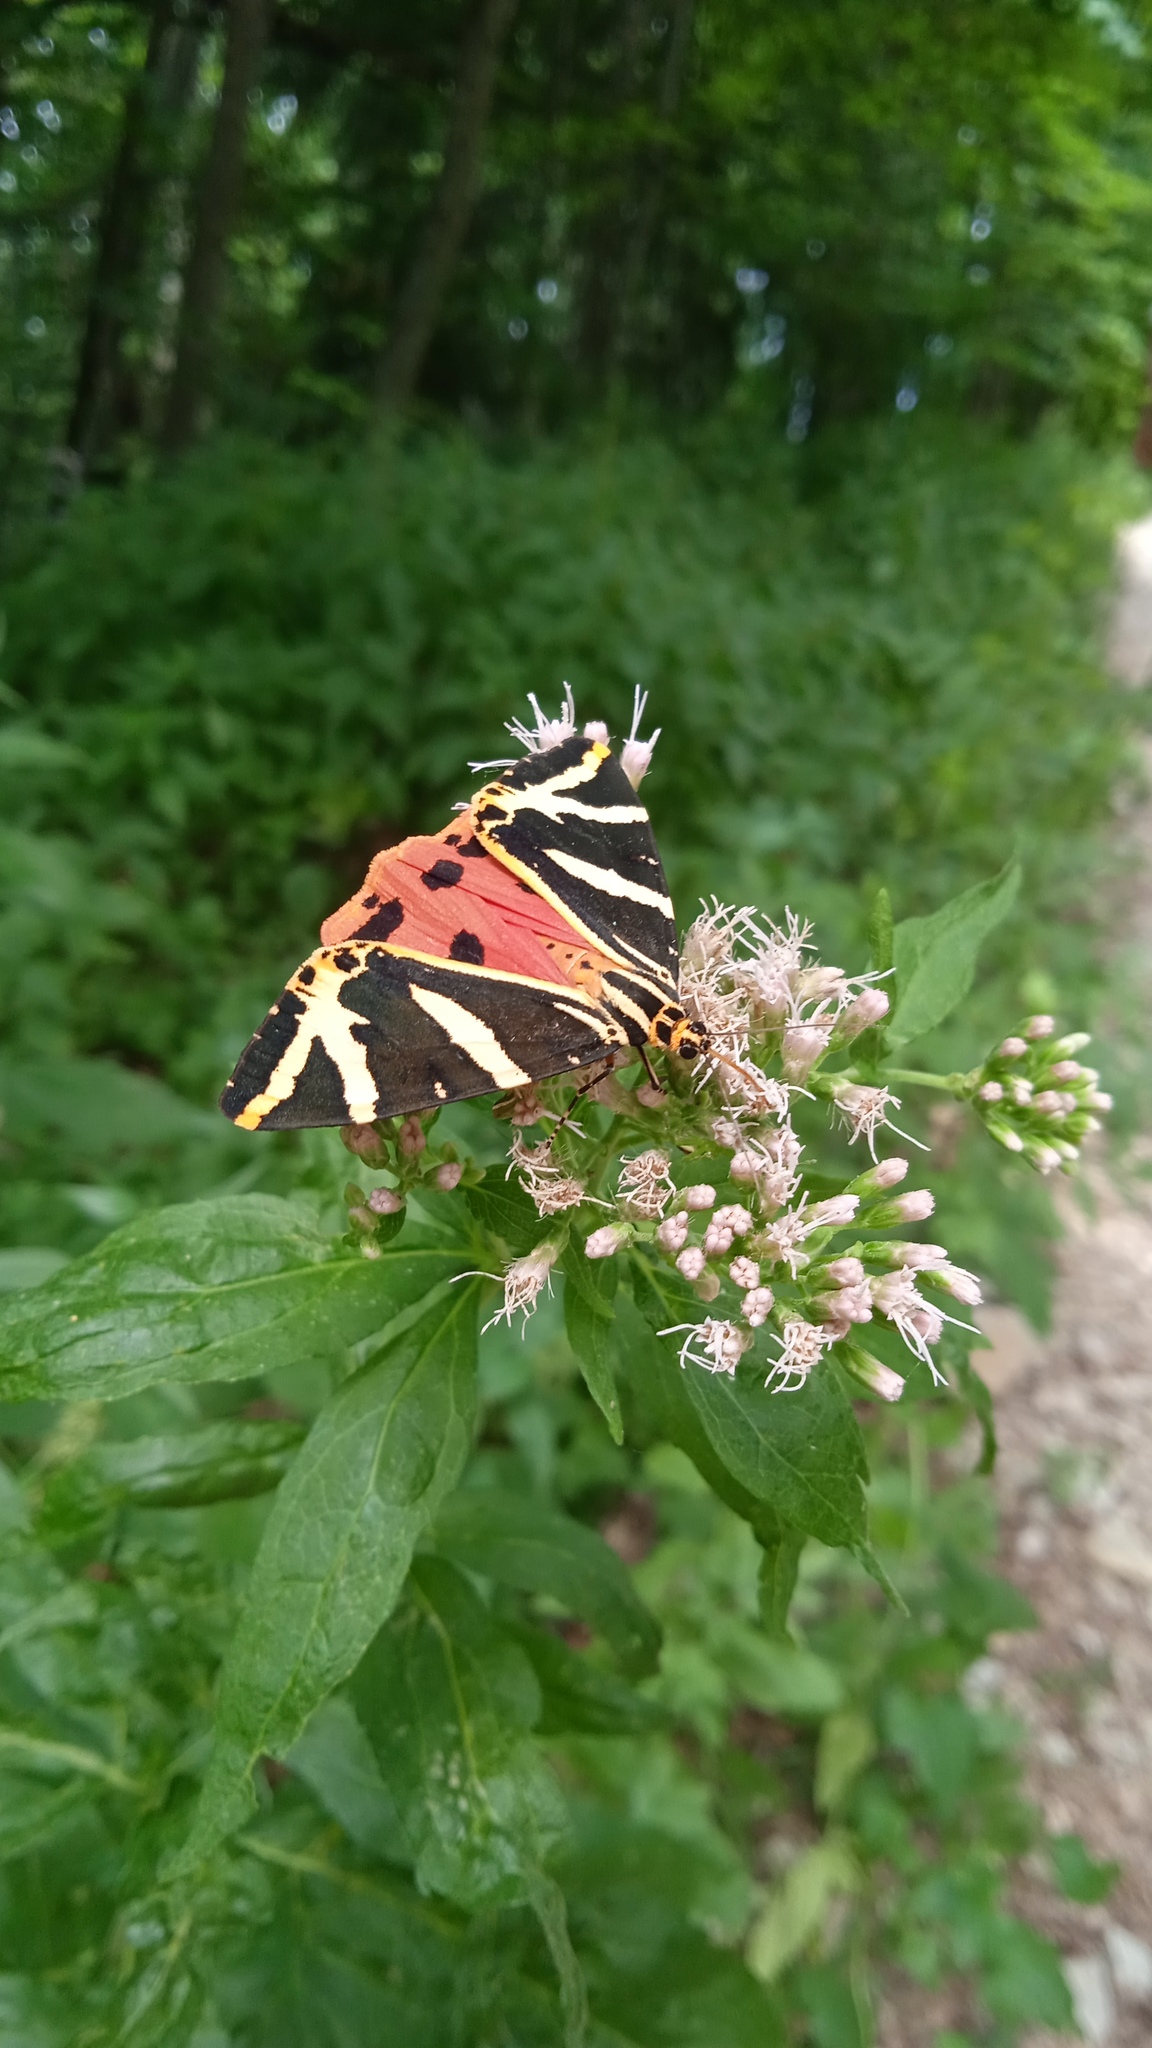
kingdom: Animalia
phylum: Arthropoda
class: Insecta
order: Lepidoptera
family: Erebidae
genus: Euplagia
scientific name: Euplagia quadripunctaria
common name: Jersey tiger
